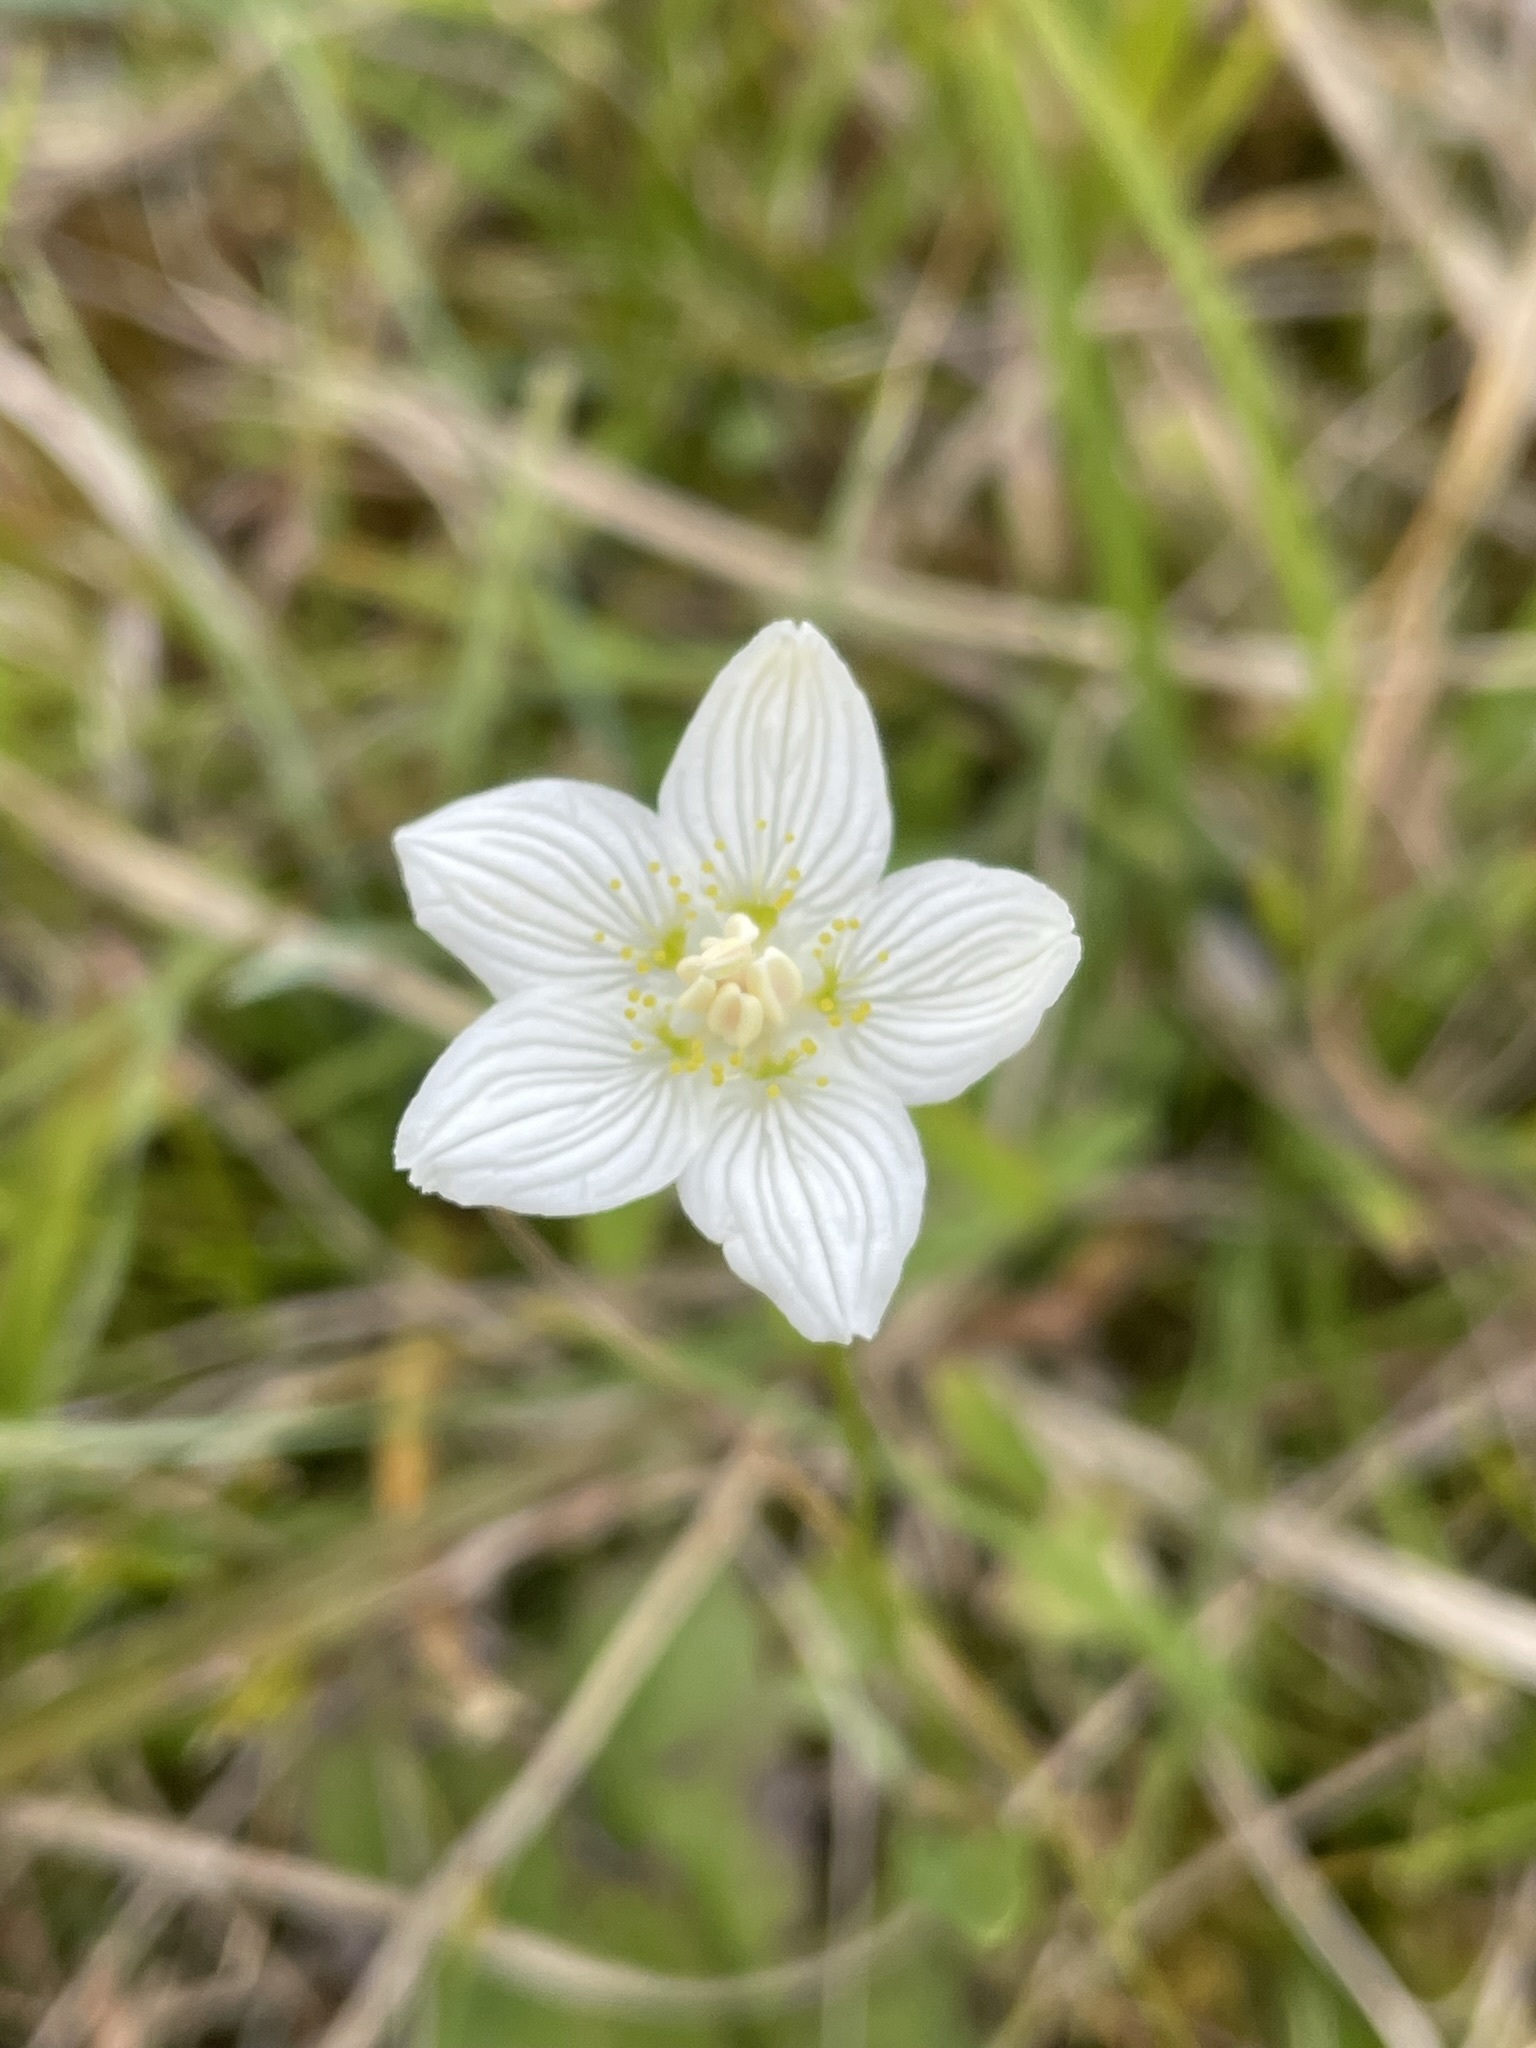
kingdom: Plantae
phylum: Tracheophyta
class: Magnoliopsida
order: Celastrales
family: Parnassiaceae
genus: Parnassia
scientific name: Parnassia palustris
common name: Grass-of-parnassus
